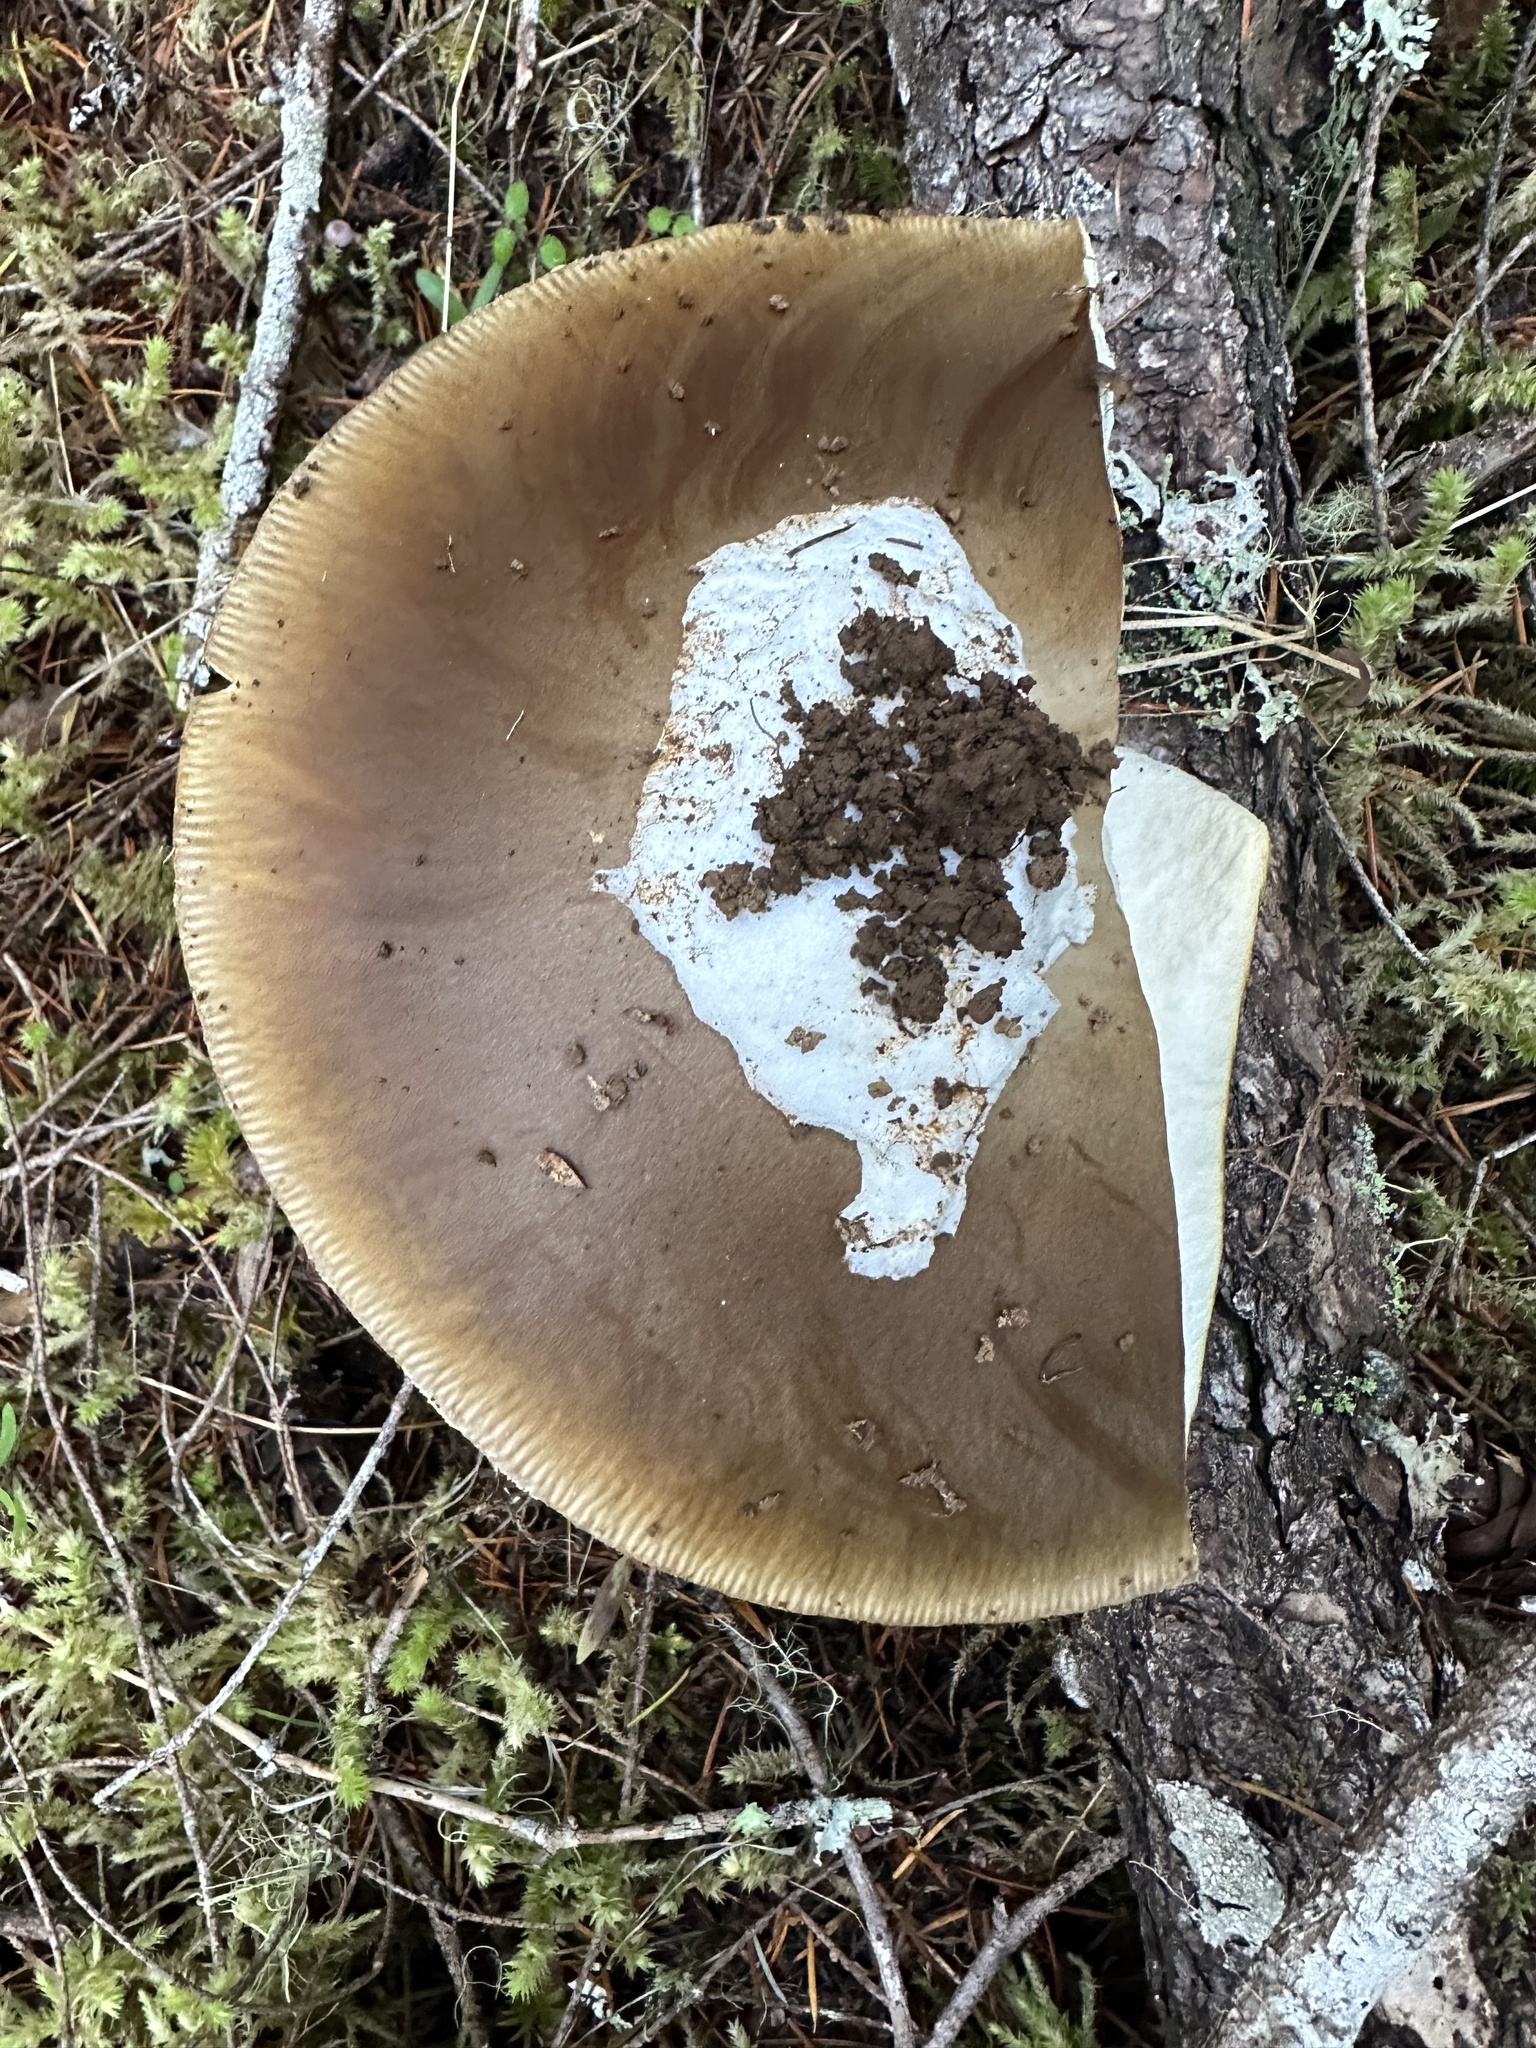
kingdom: Fungi
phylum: Basidiomycota
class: Agaricomycetes
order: Agaricales
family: Amanitaceae
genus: Amanita
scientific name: Amanita calyptroderma
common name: Coccora
